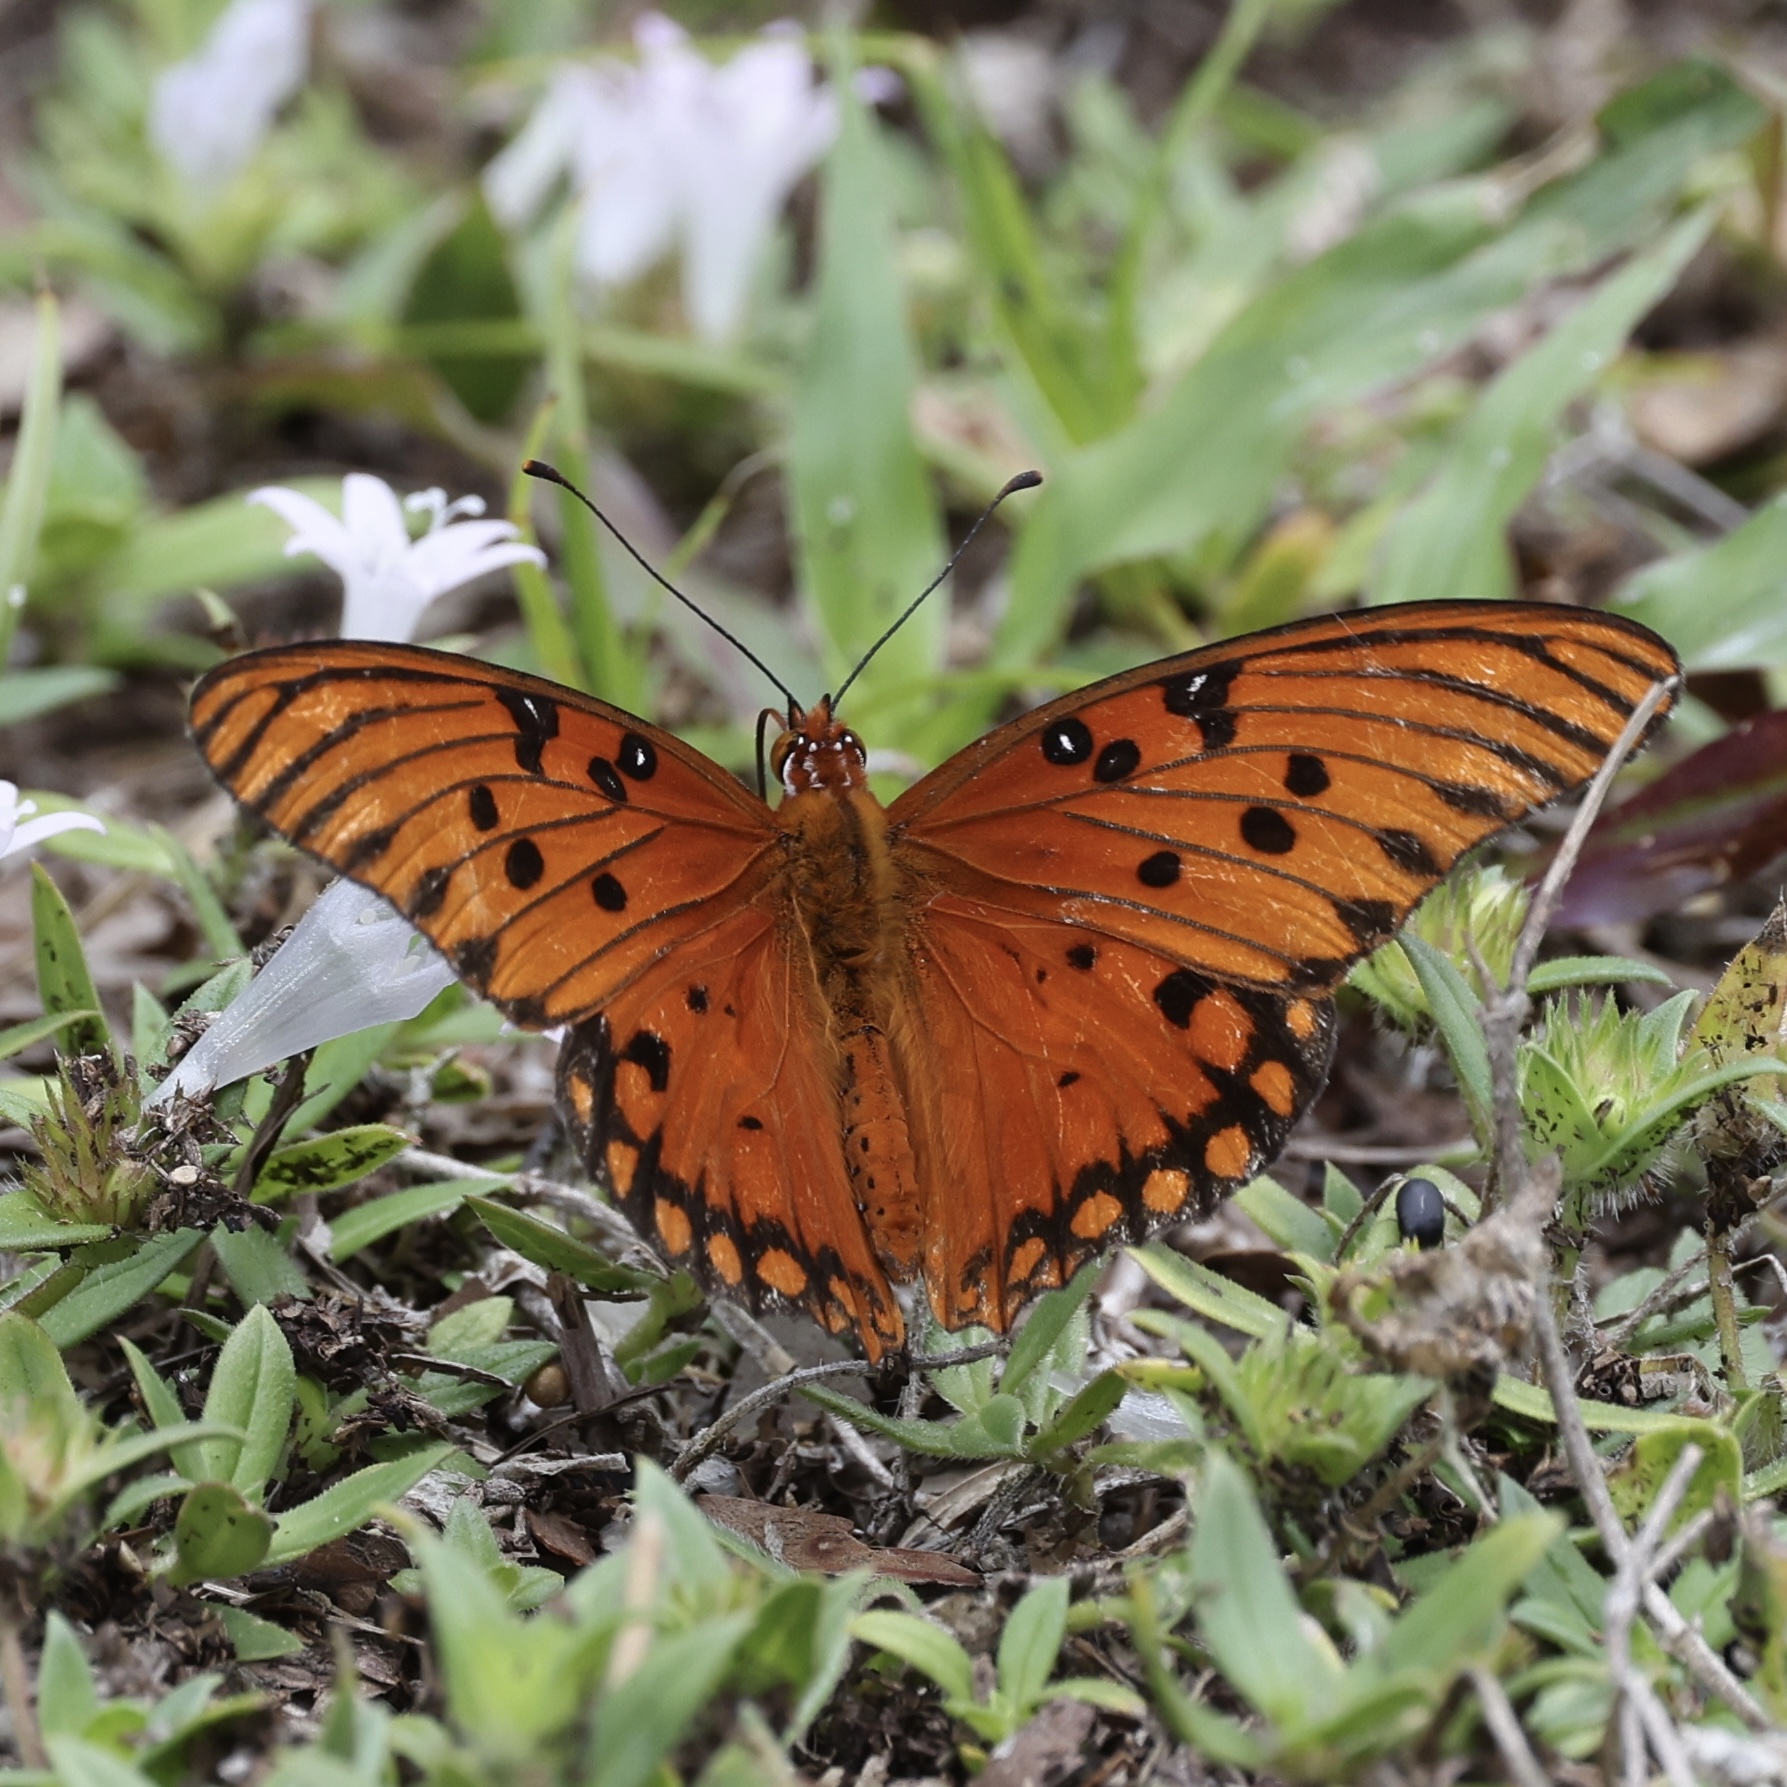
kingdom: Animalia
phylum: Arthropoda
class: Insecta
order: Lepidoptera
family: Nymphalidae
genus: Dione
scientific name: Dione vanillae
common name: Gulf fritillary
